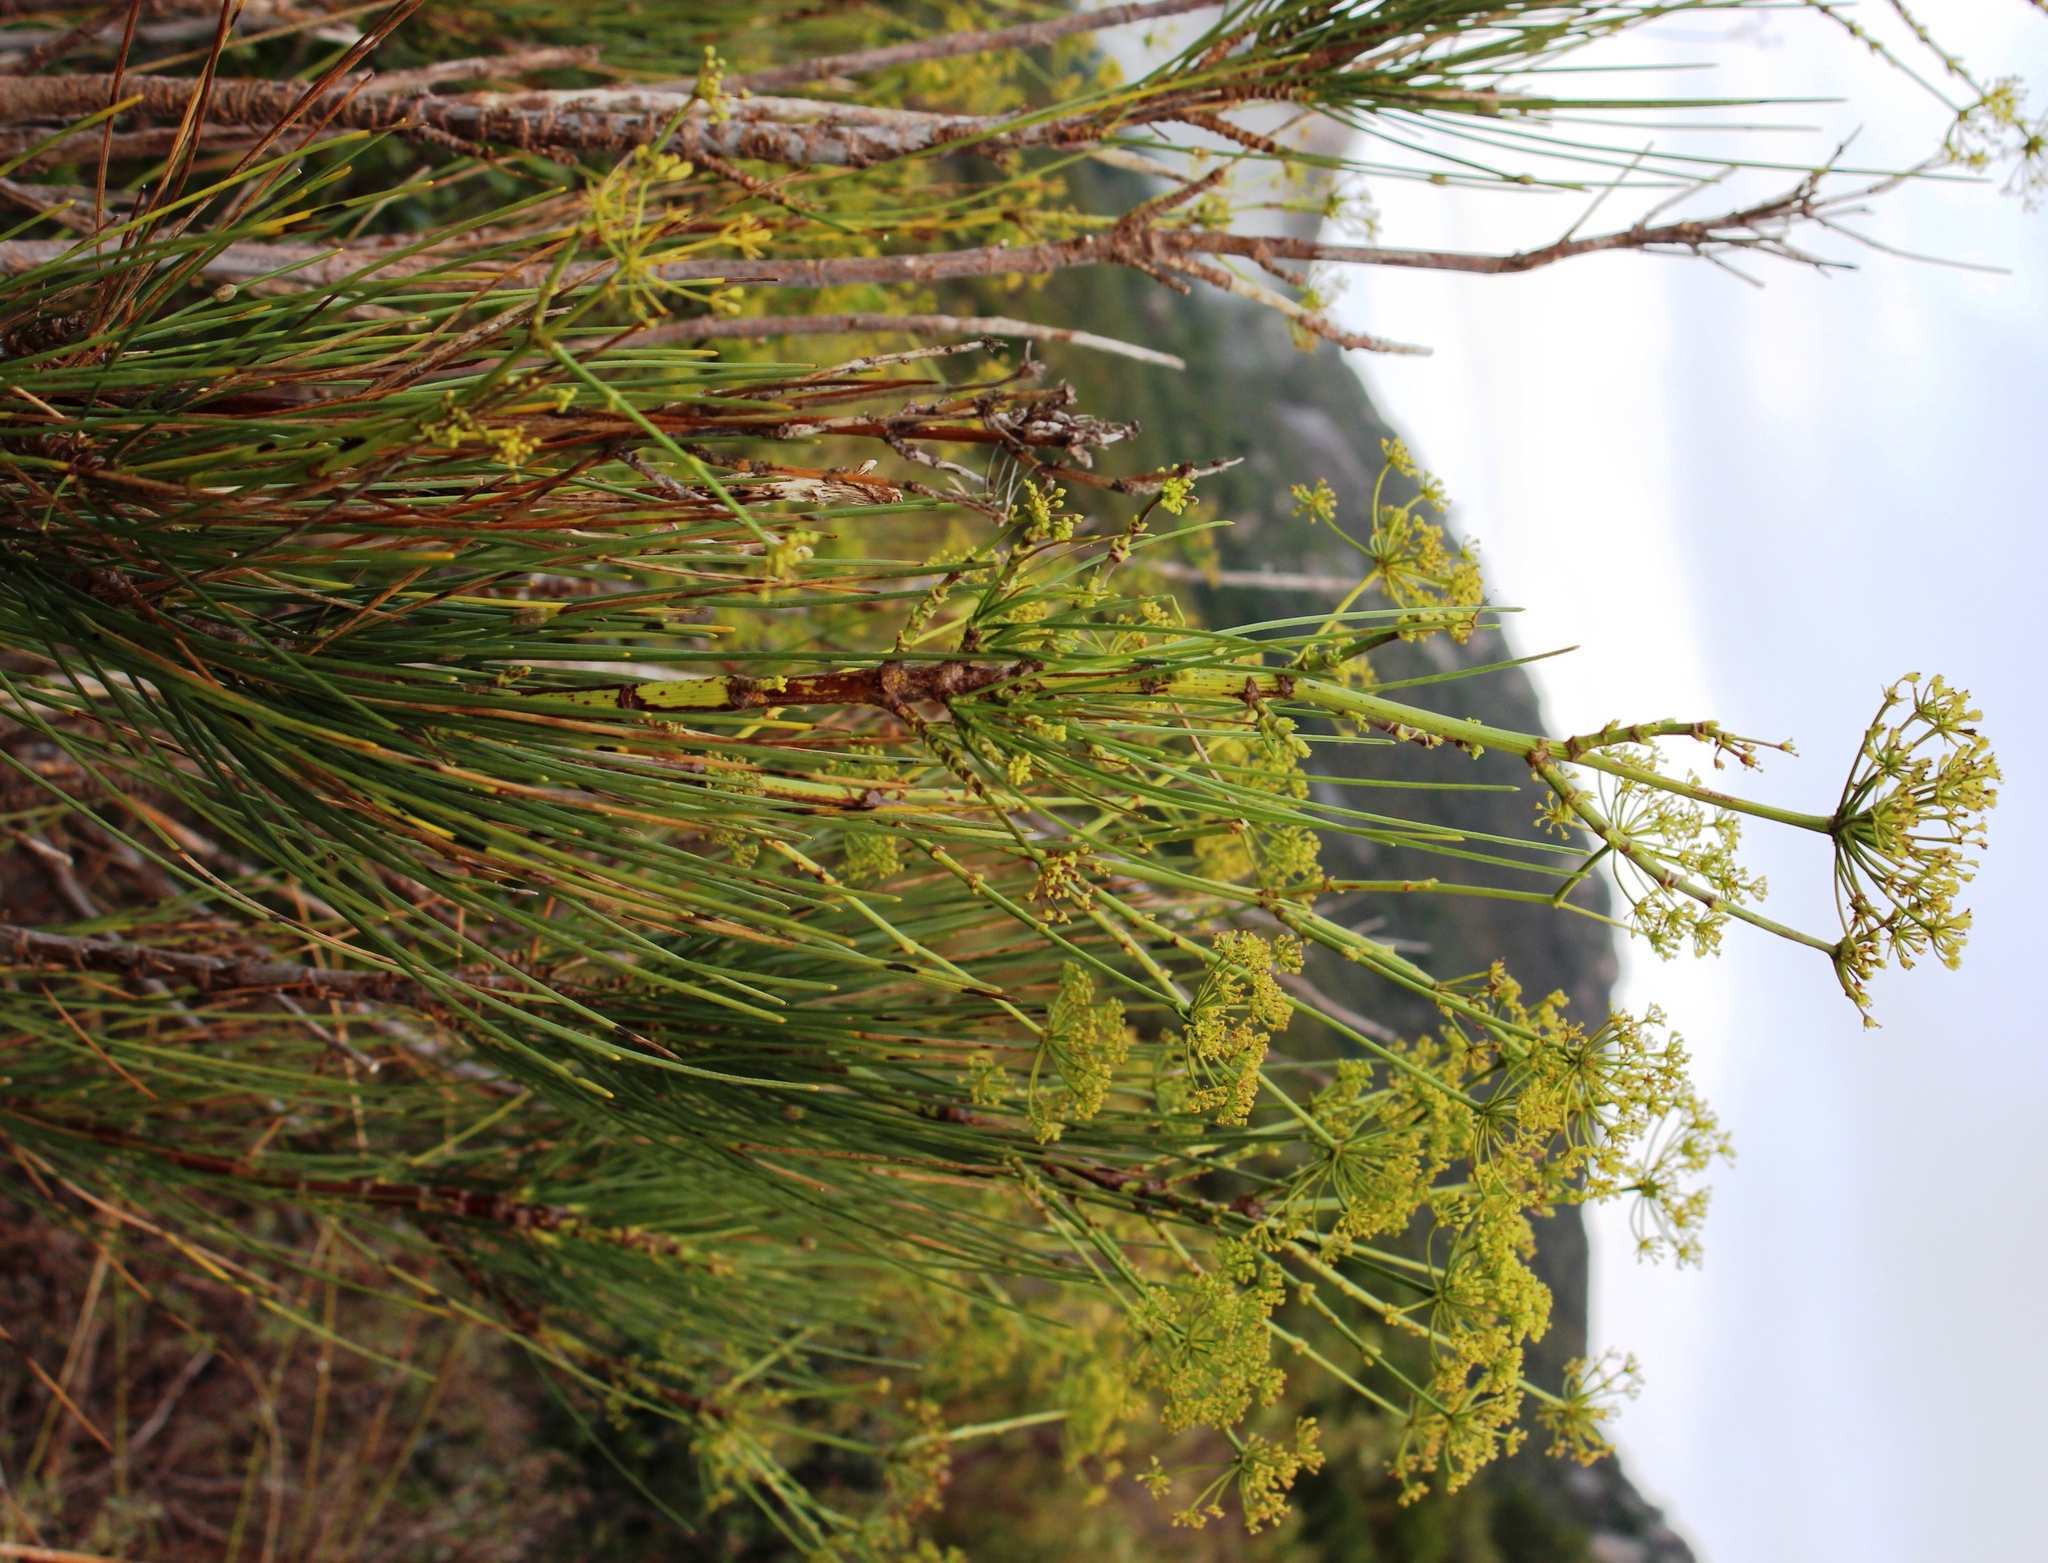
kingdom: Plantae
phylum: Tracheophyta
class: Magnoliopsida
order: Apiales
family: Apiaceae
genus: Anginon
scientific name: Anginon difforme
